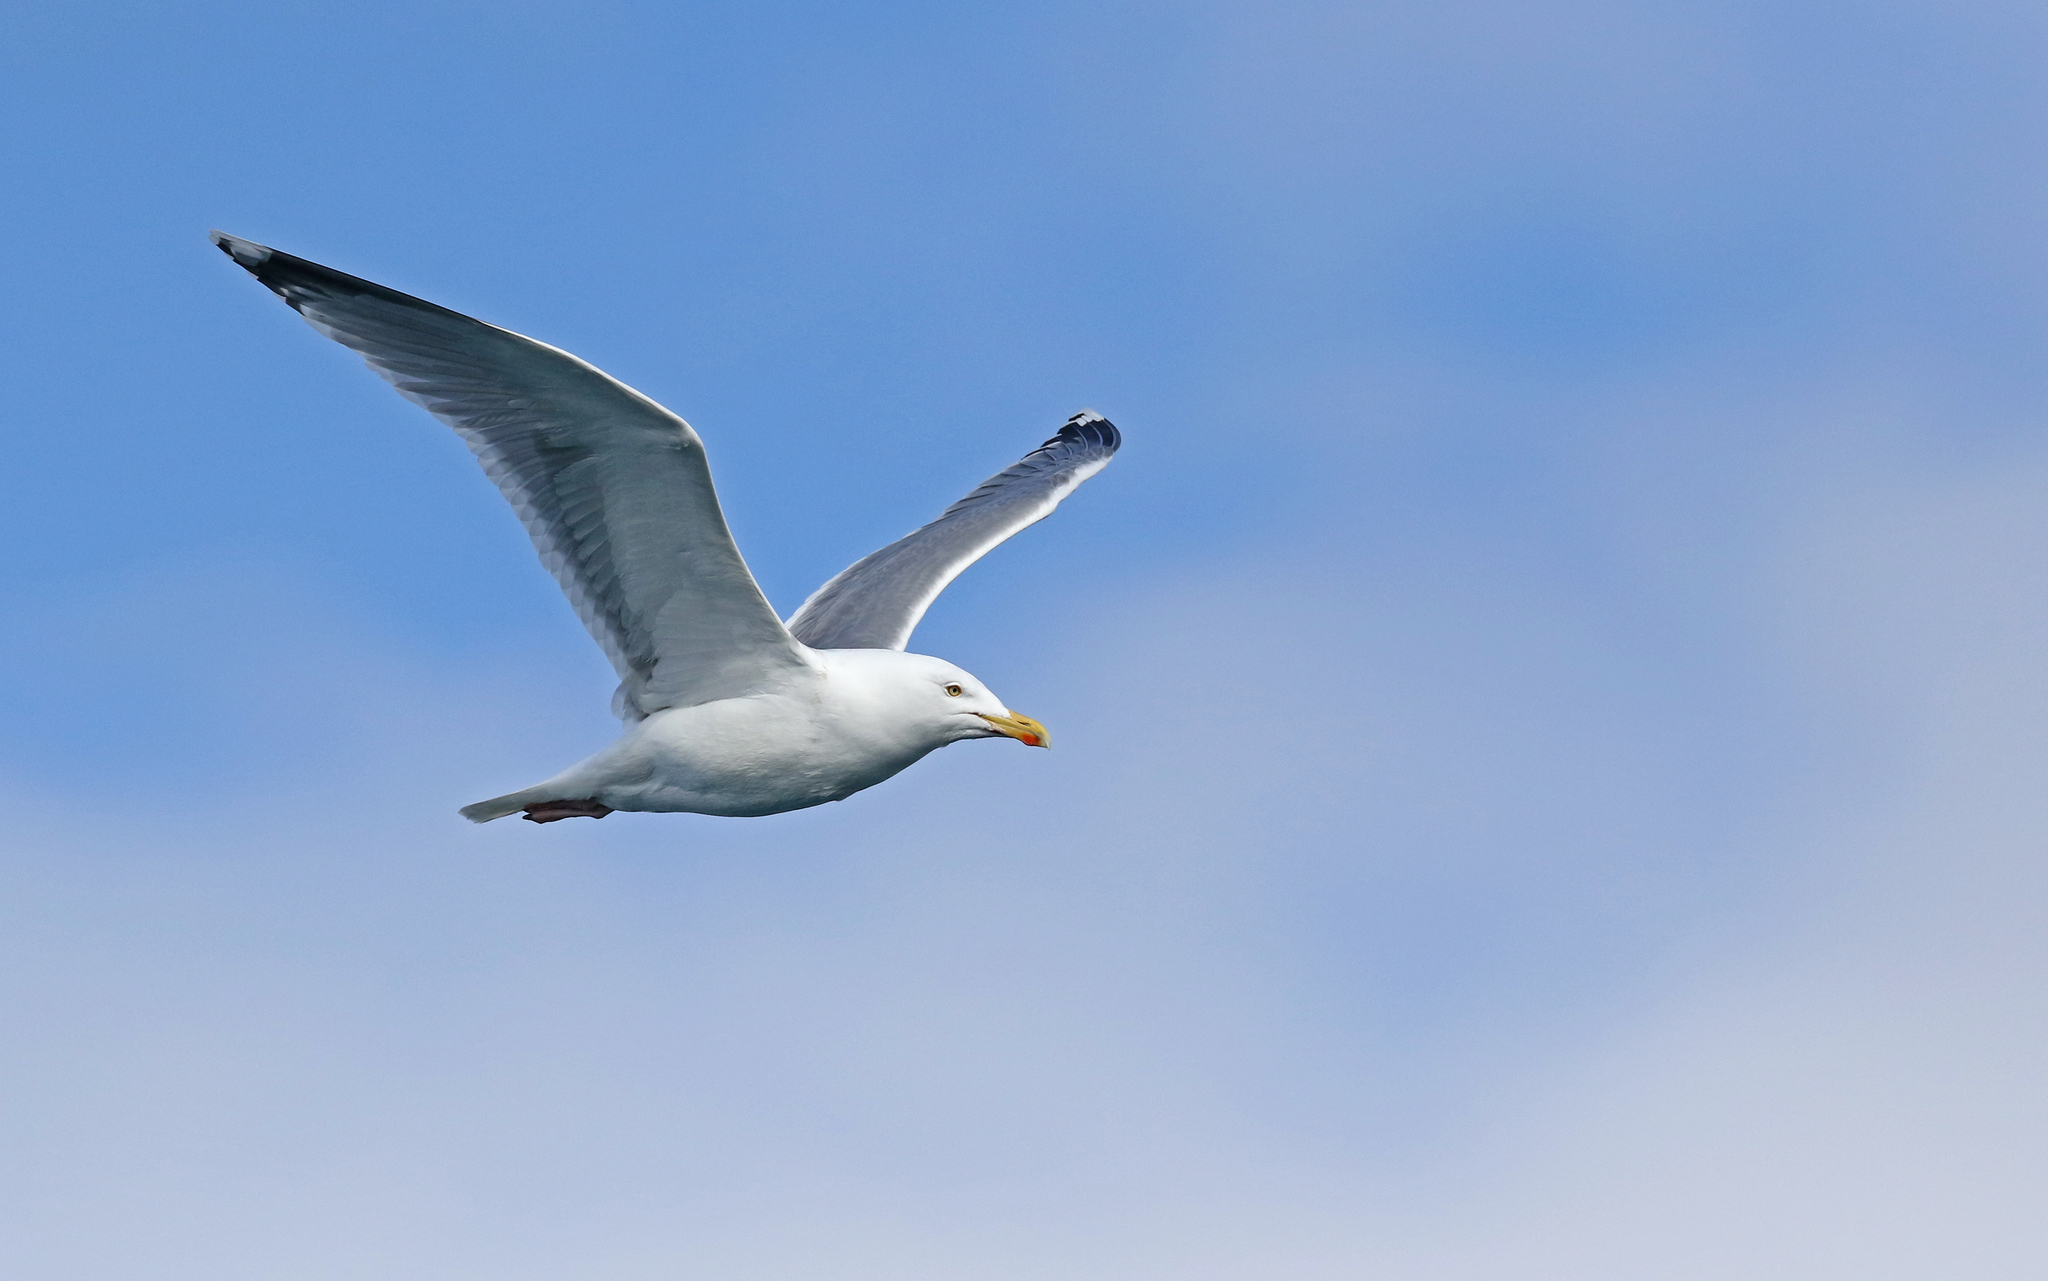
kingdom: Animalia
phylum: Chordata
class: Aves
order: Charadriiformes
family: Laridae
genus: Larus
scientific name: Larus argentatus
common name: Herring gull
